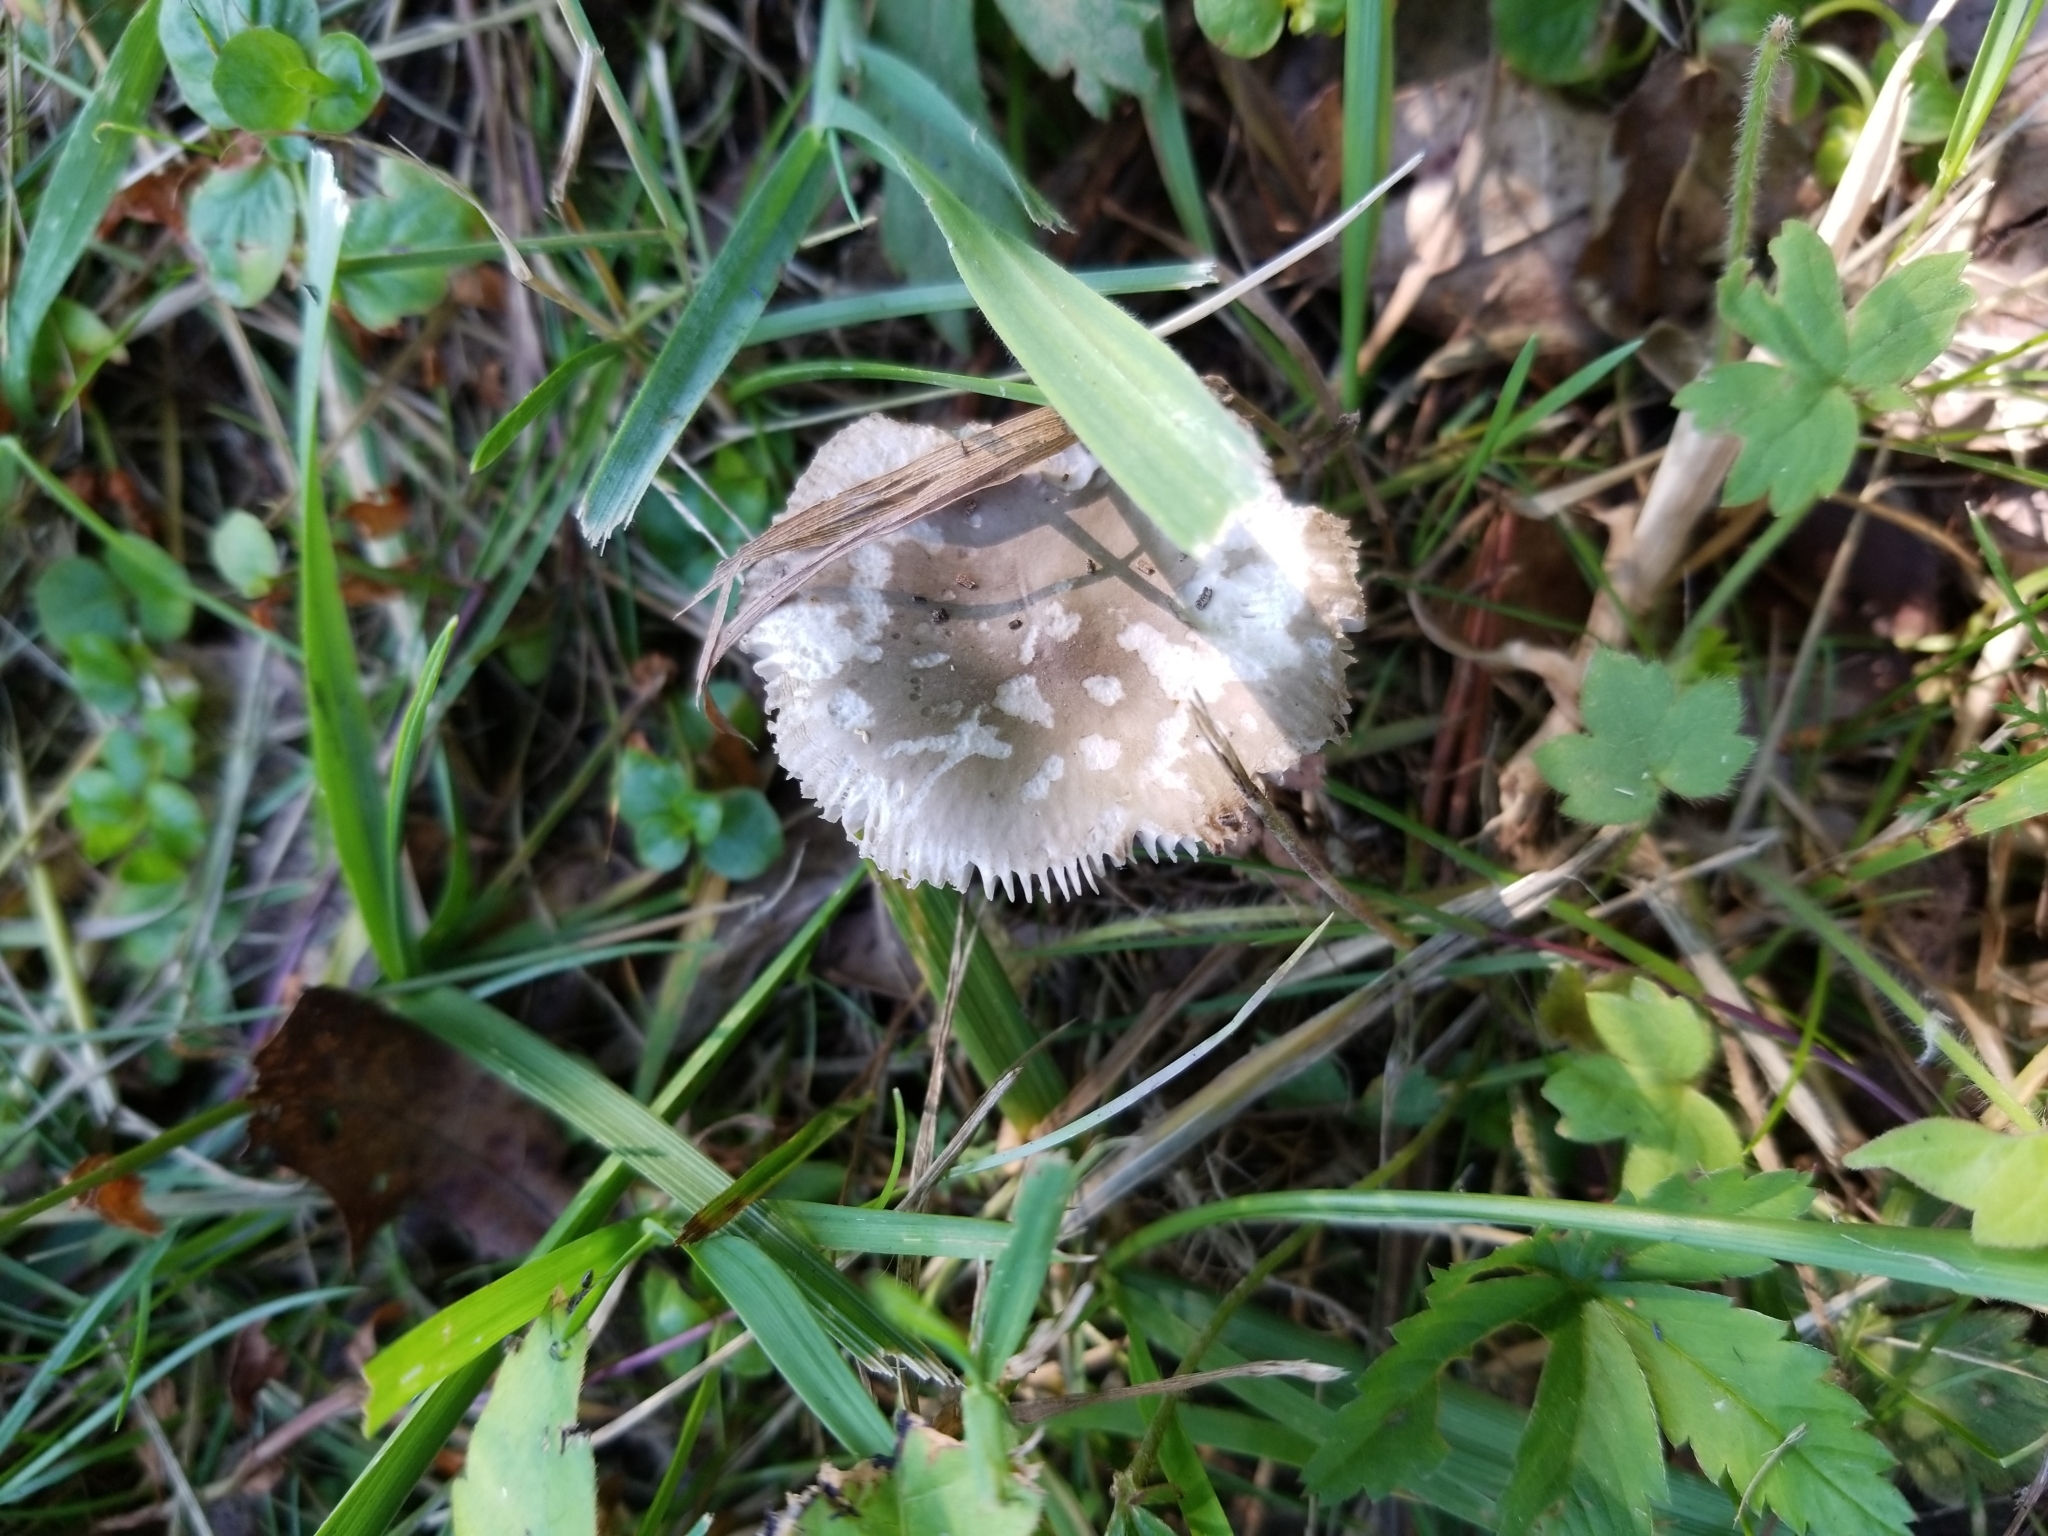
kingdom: Fungi
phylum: Basidiomycota
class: Agaricomycetes
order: Agaricales
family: Amanitaceae
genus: Amanita
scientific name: Amanita vaginata
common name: Grisette
